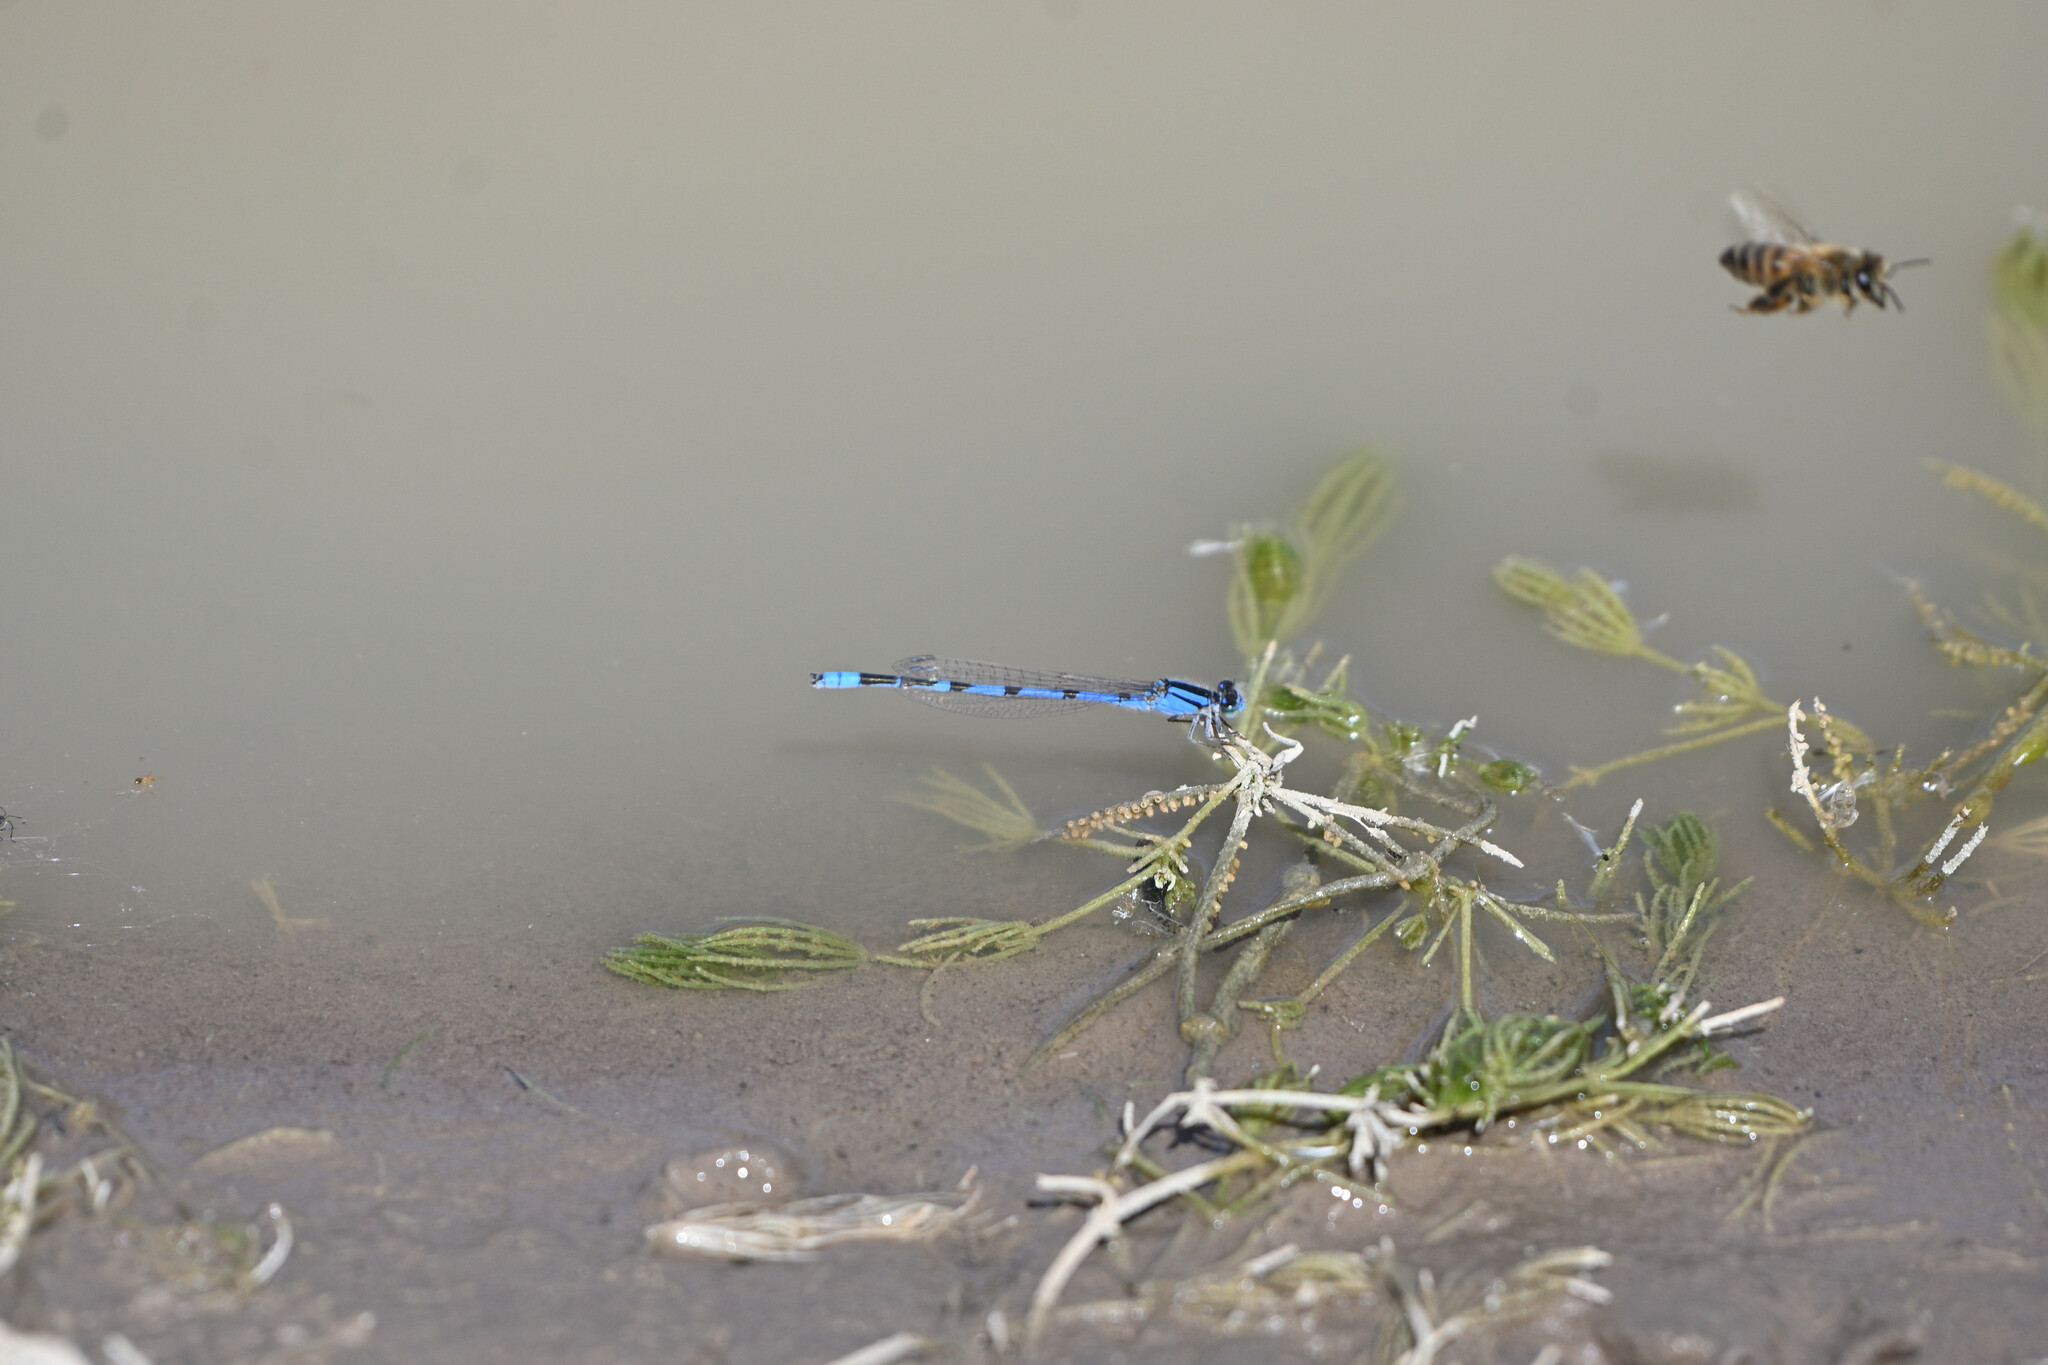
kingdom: Animalia
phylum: Arthropoda
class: Insecta
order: Odonata
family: Coenagrionidae
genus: Enallagma
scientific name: Enallagma civile
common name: Damselfly
